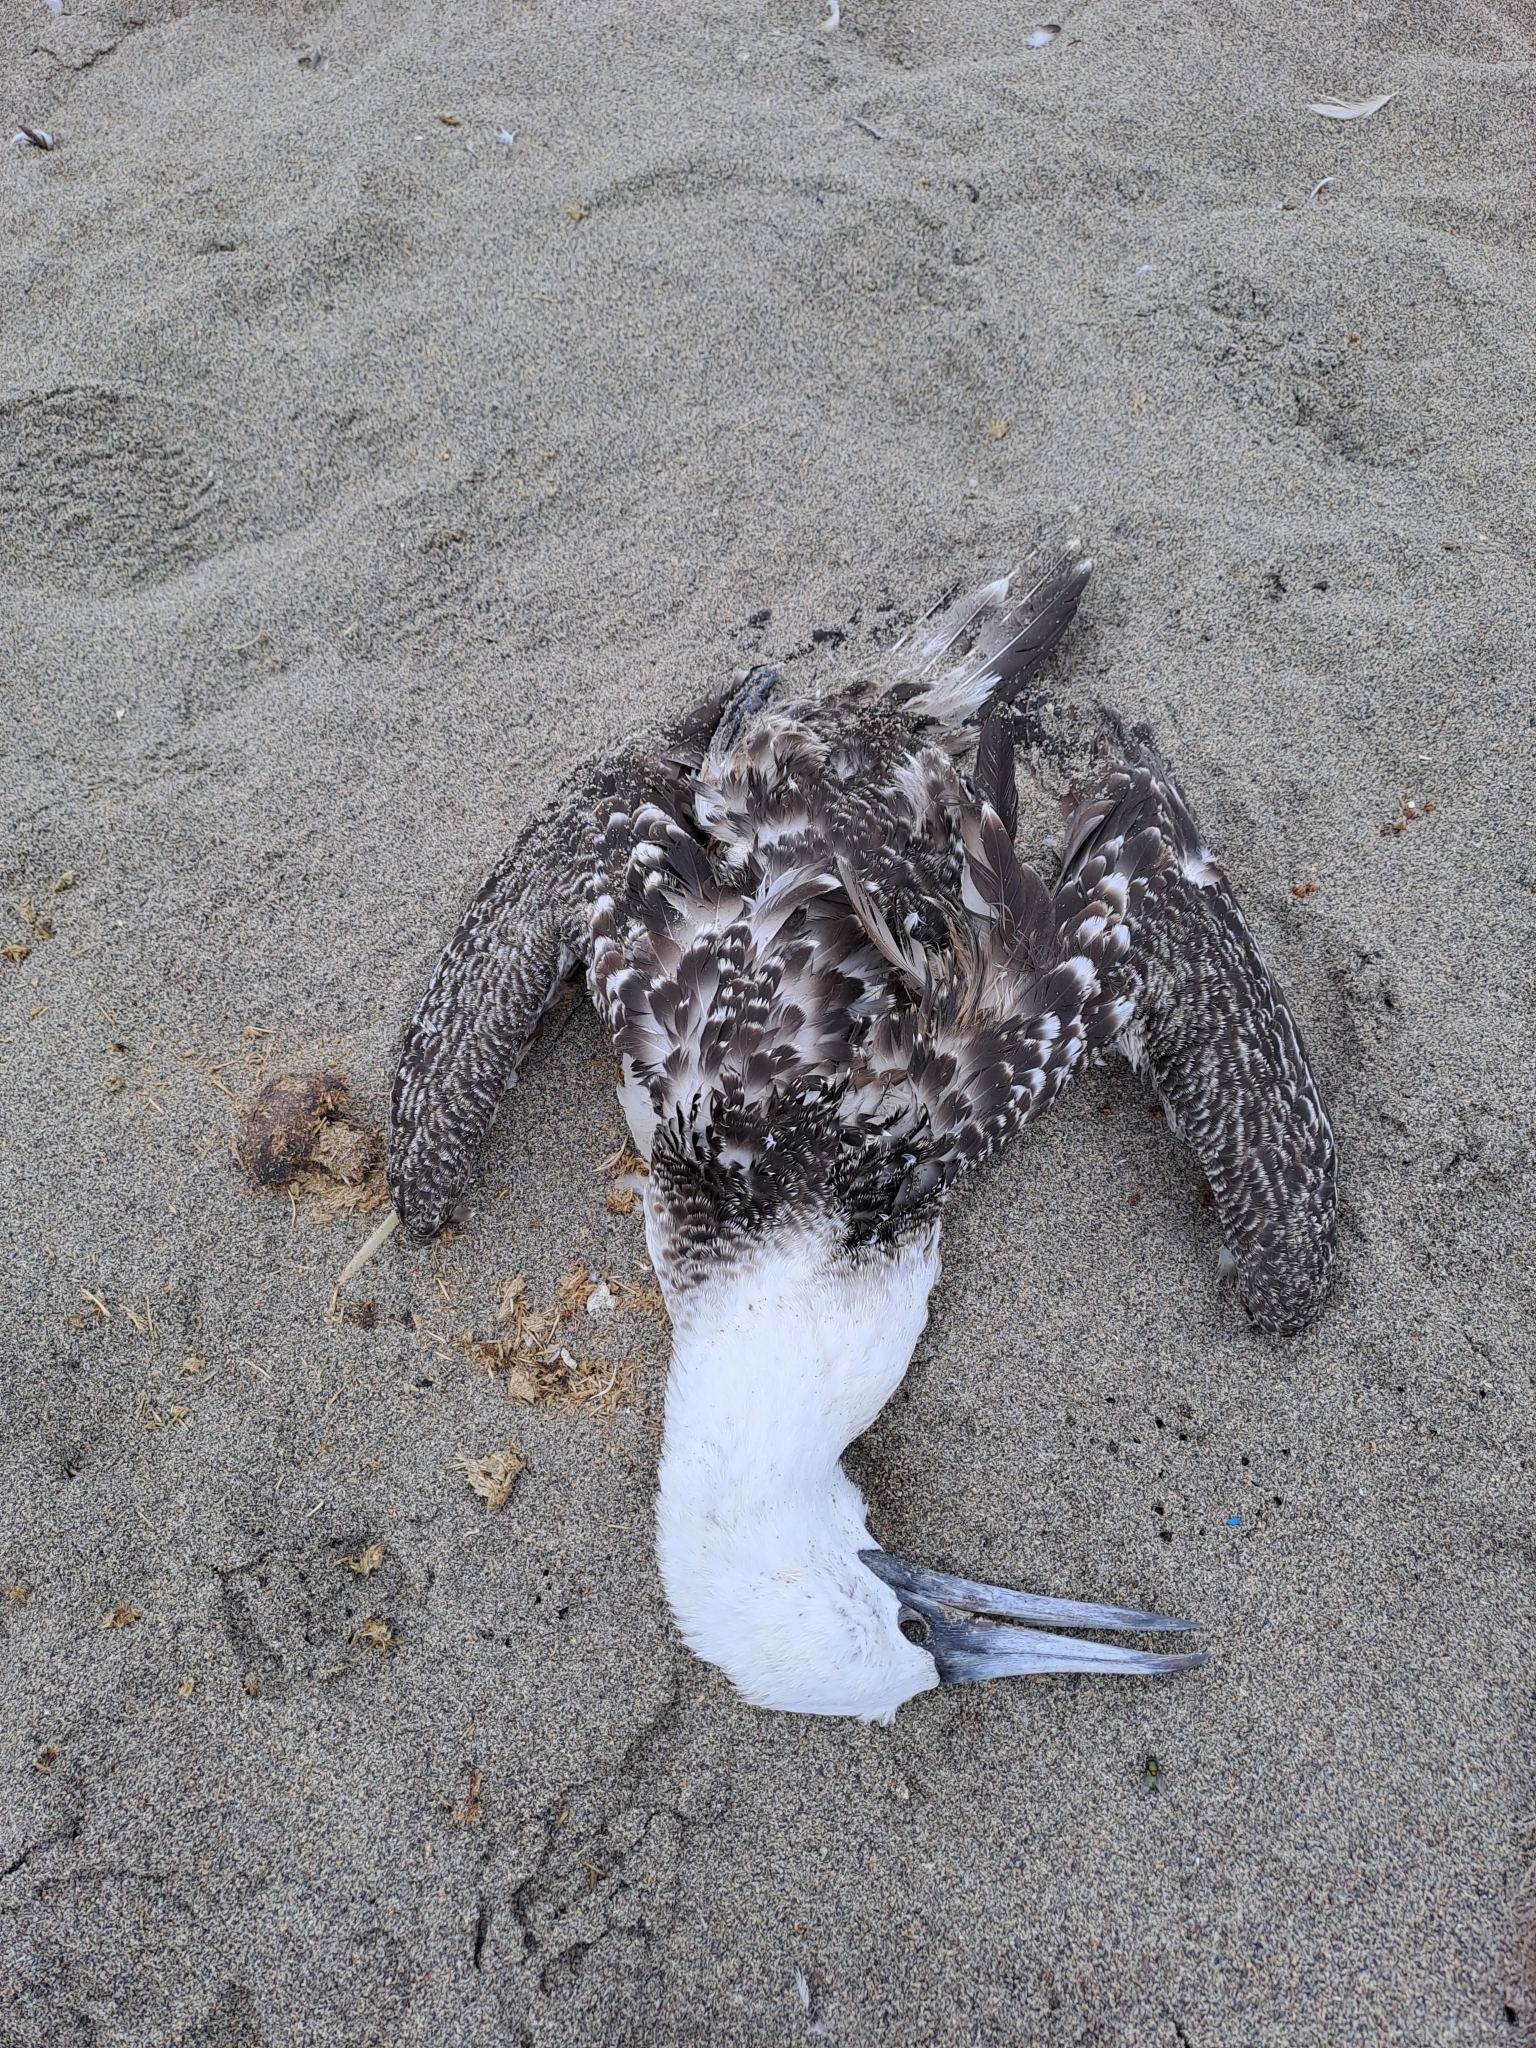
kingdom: Animalia
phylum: Chordata
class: Aves
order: Suliformes
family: Sulidae
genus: Sula
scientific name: Sula variegata
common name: Peruvian booby
